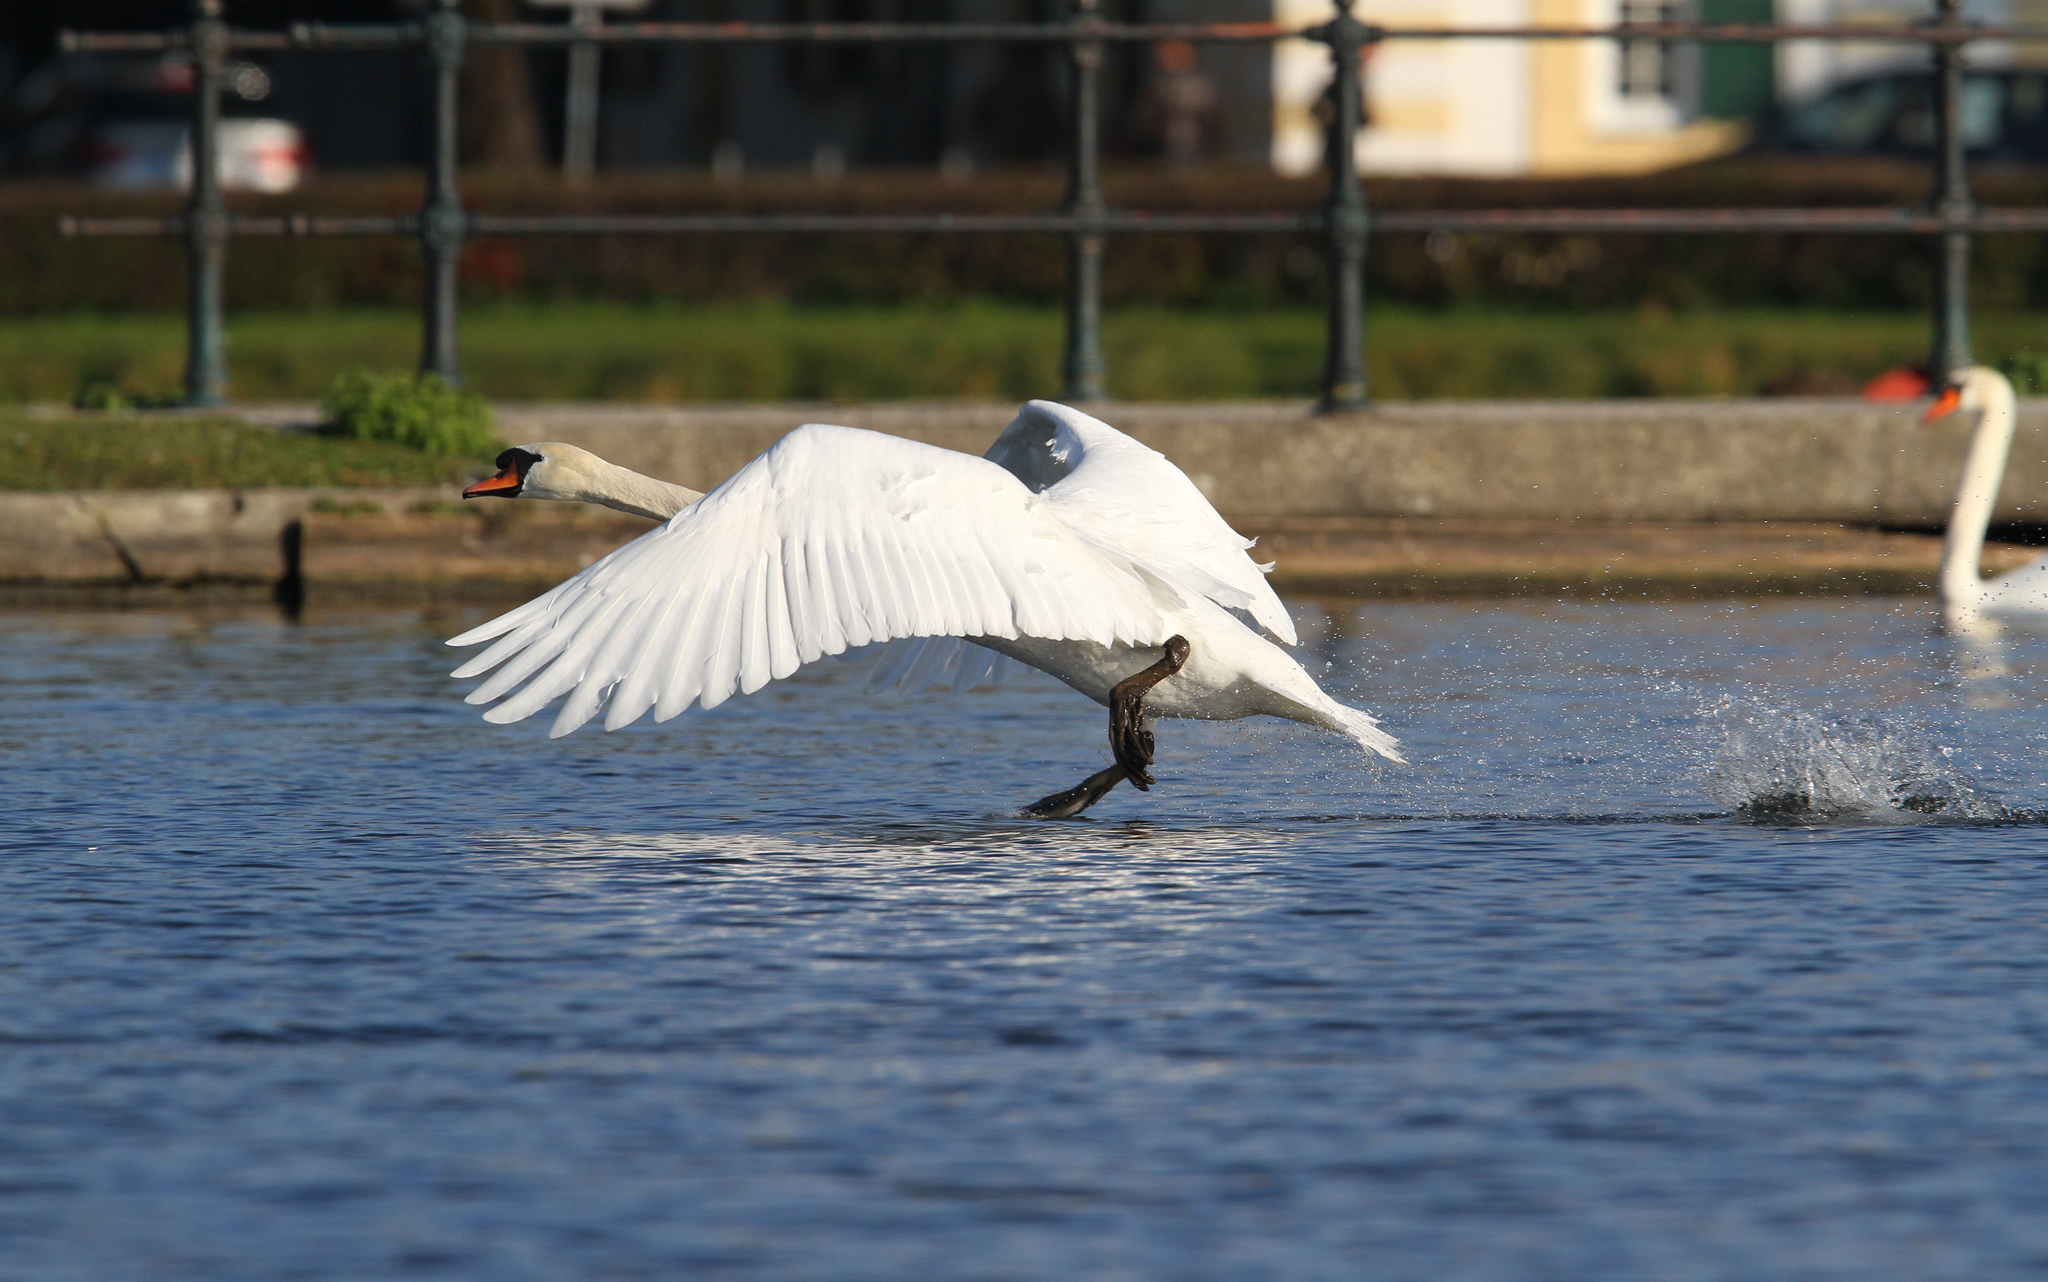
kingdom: Animalia
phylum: Chordata
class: Aves
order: Anseriformes
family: Anatidae
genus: Cygnus
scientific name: Cygnus olor
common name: Mute swan
